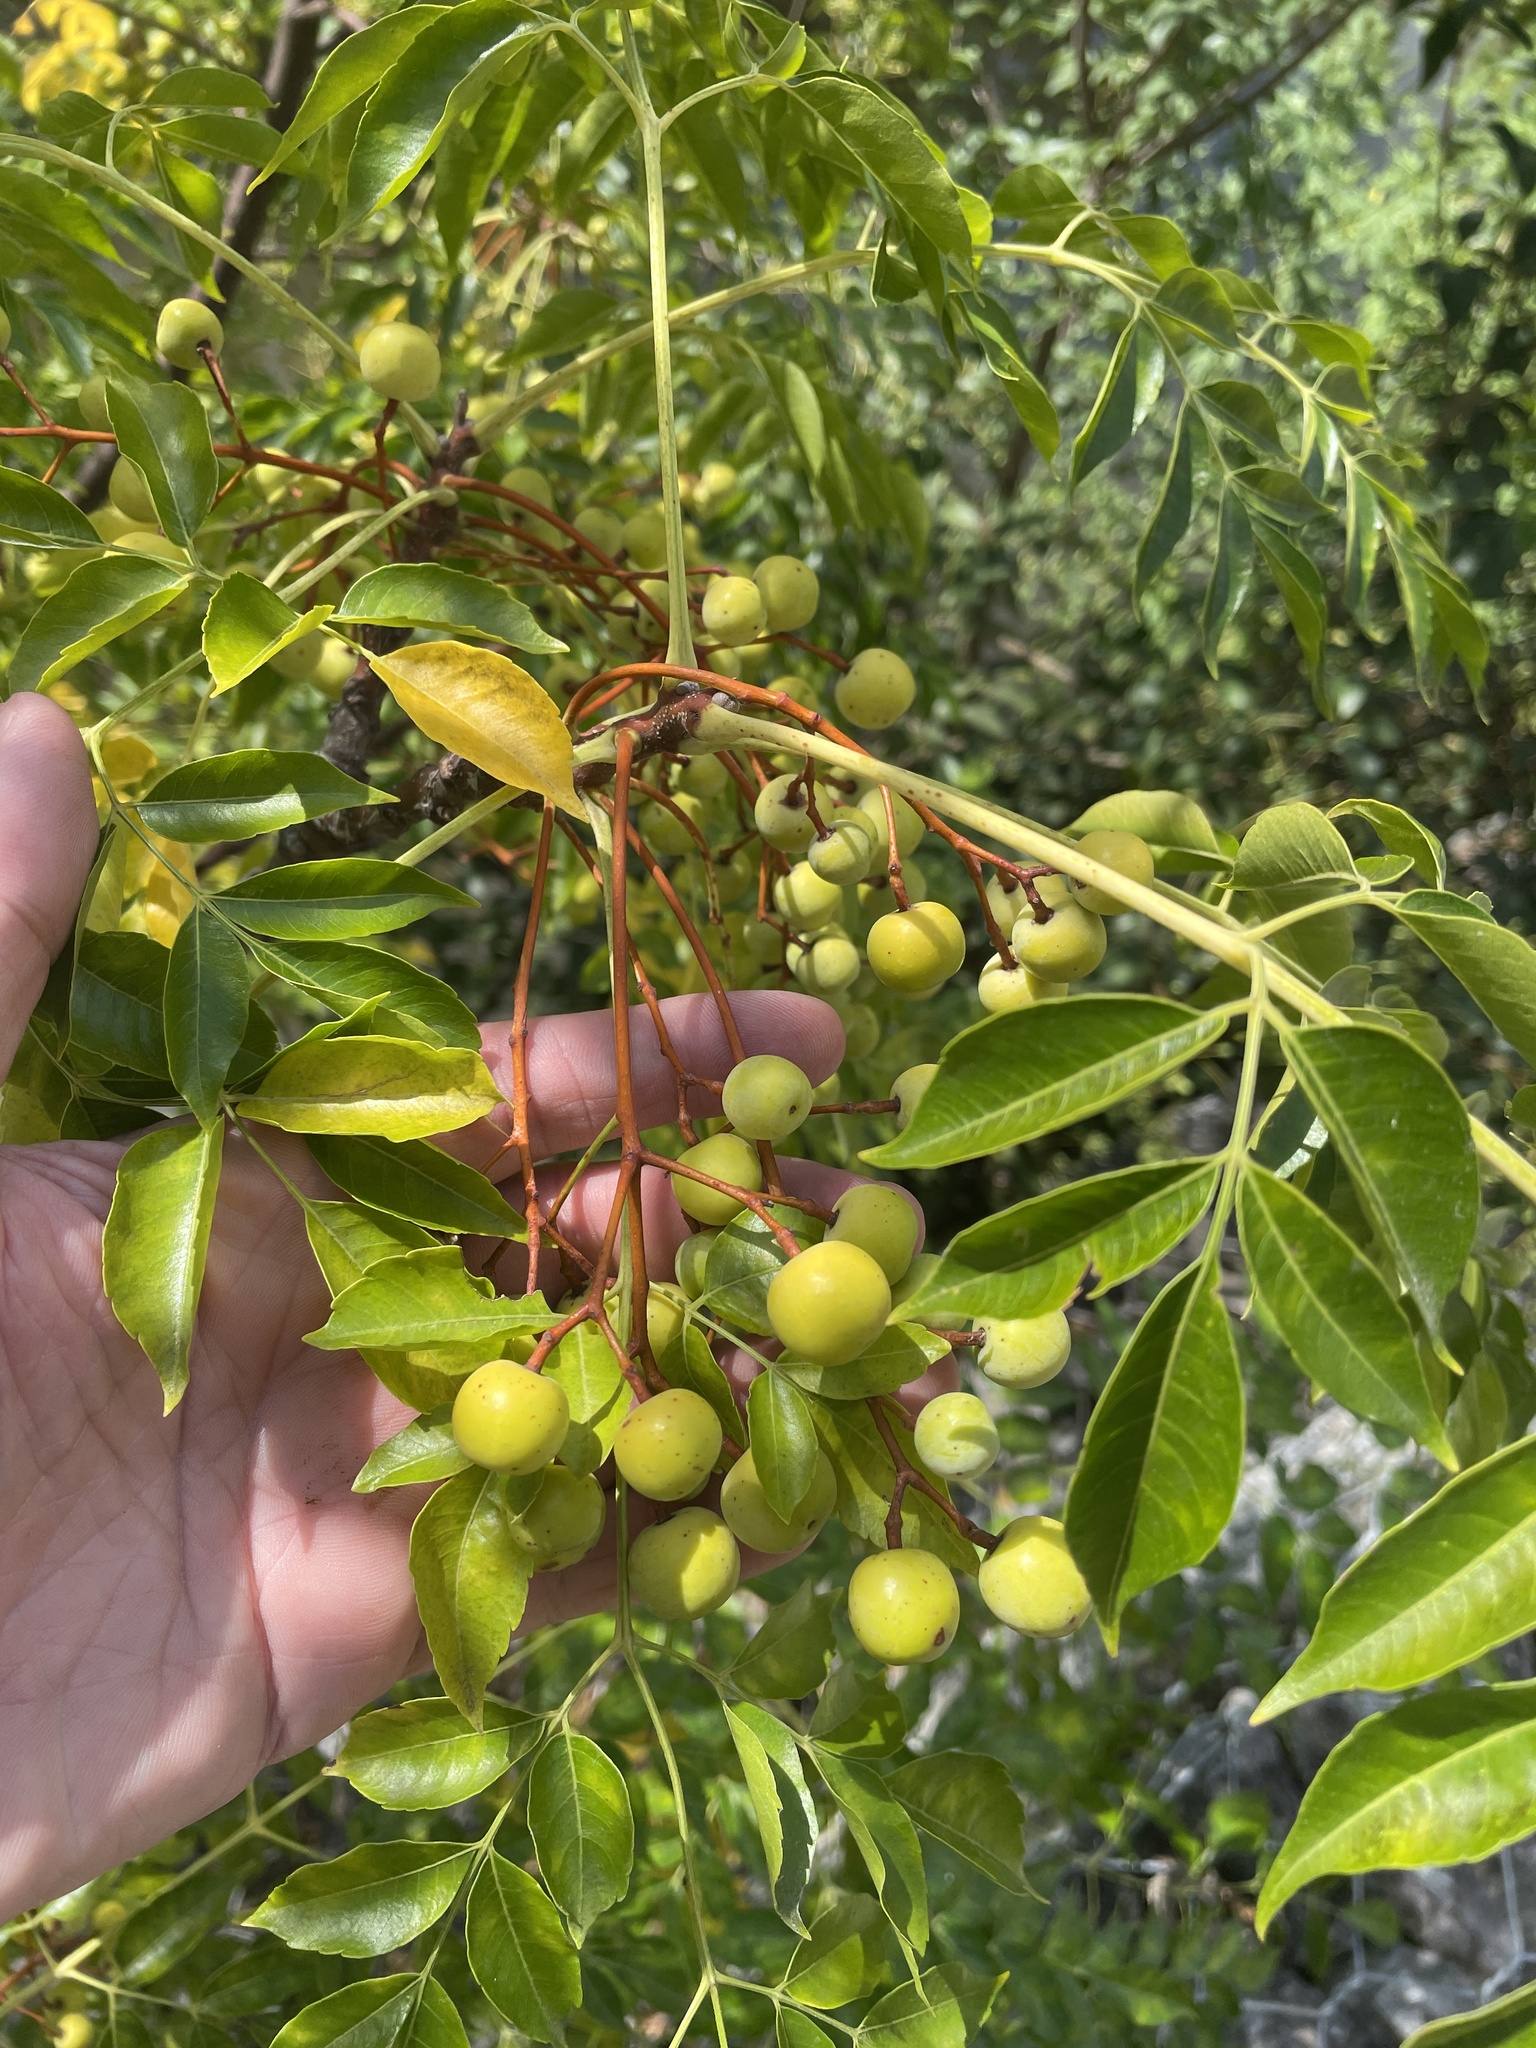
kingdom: Plantae
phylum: Tracheophyta
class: Magnoliopsida
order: Sapindales
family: Meliaceae
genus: Melia
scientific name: Melia azedarach
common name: Chinaberrytree
